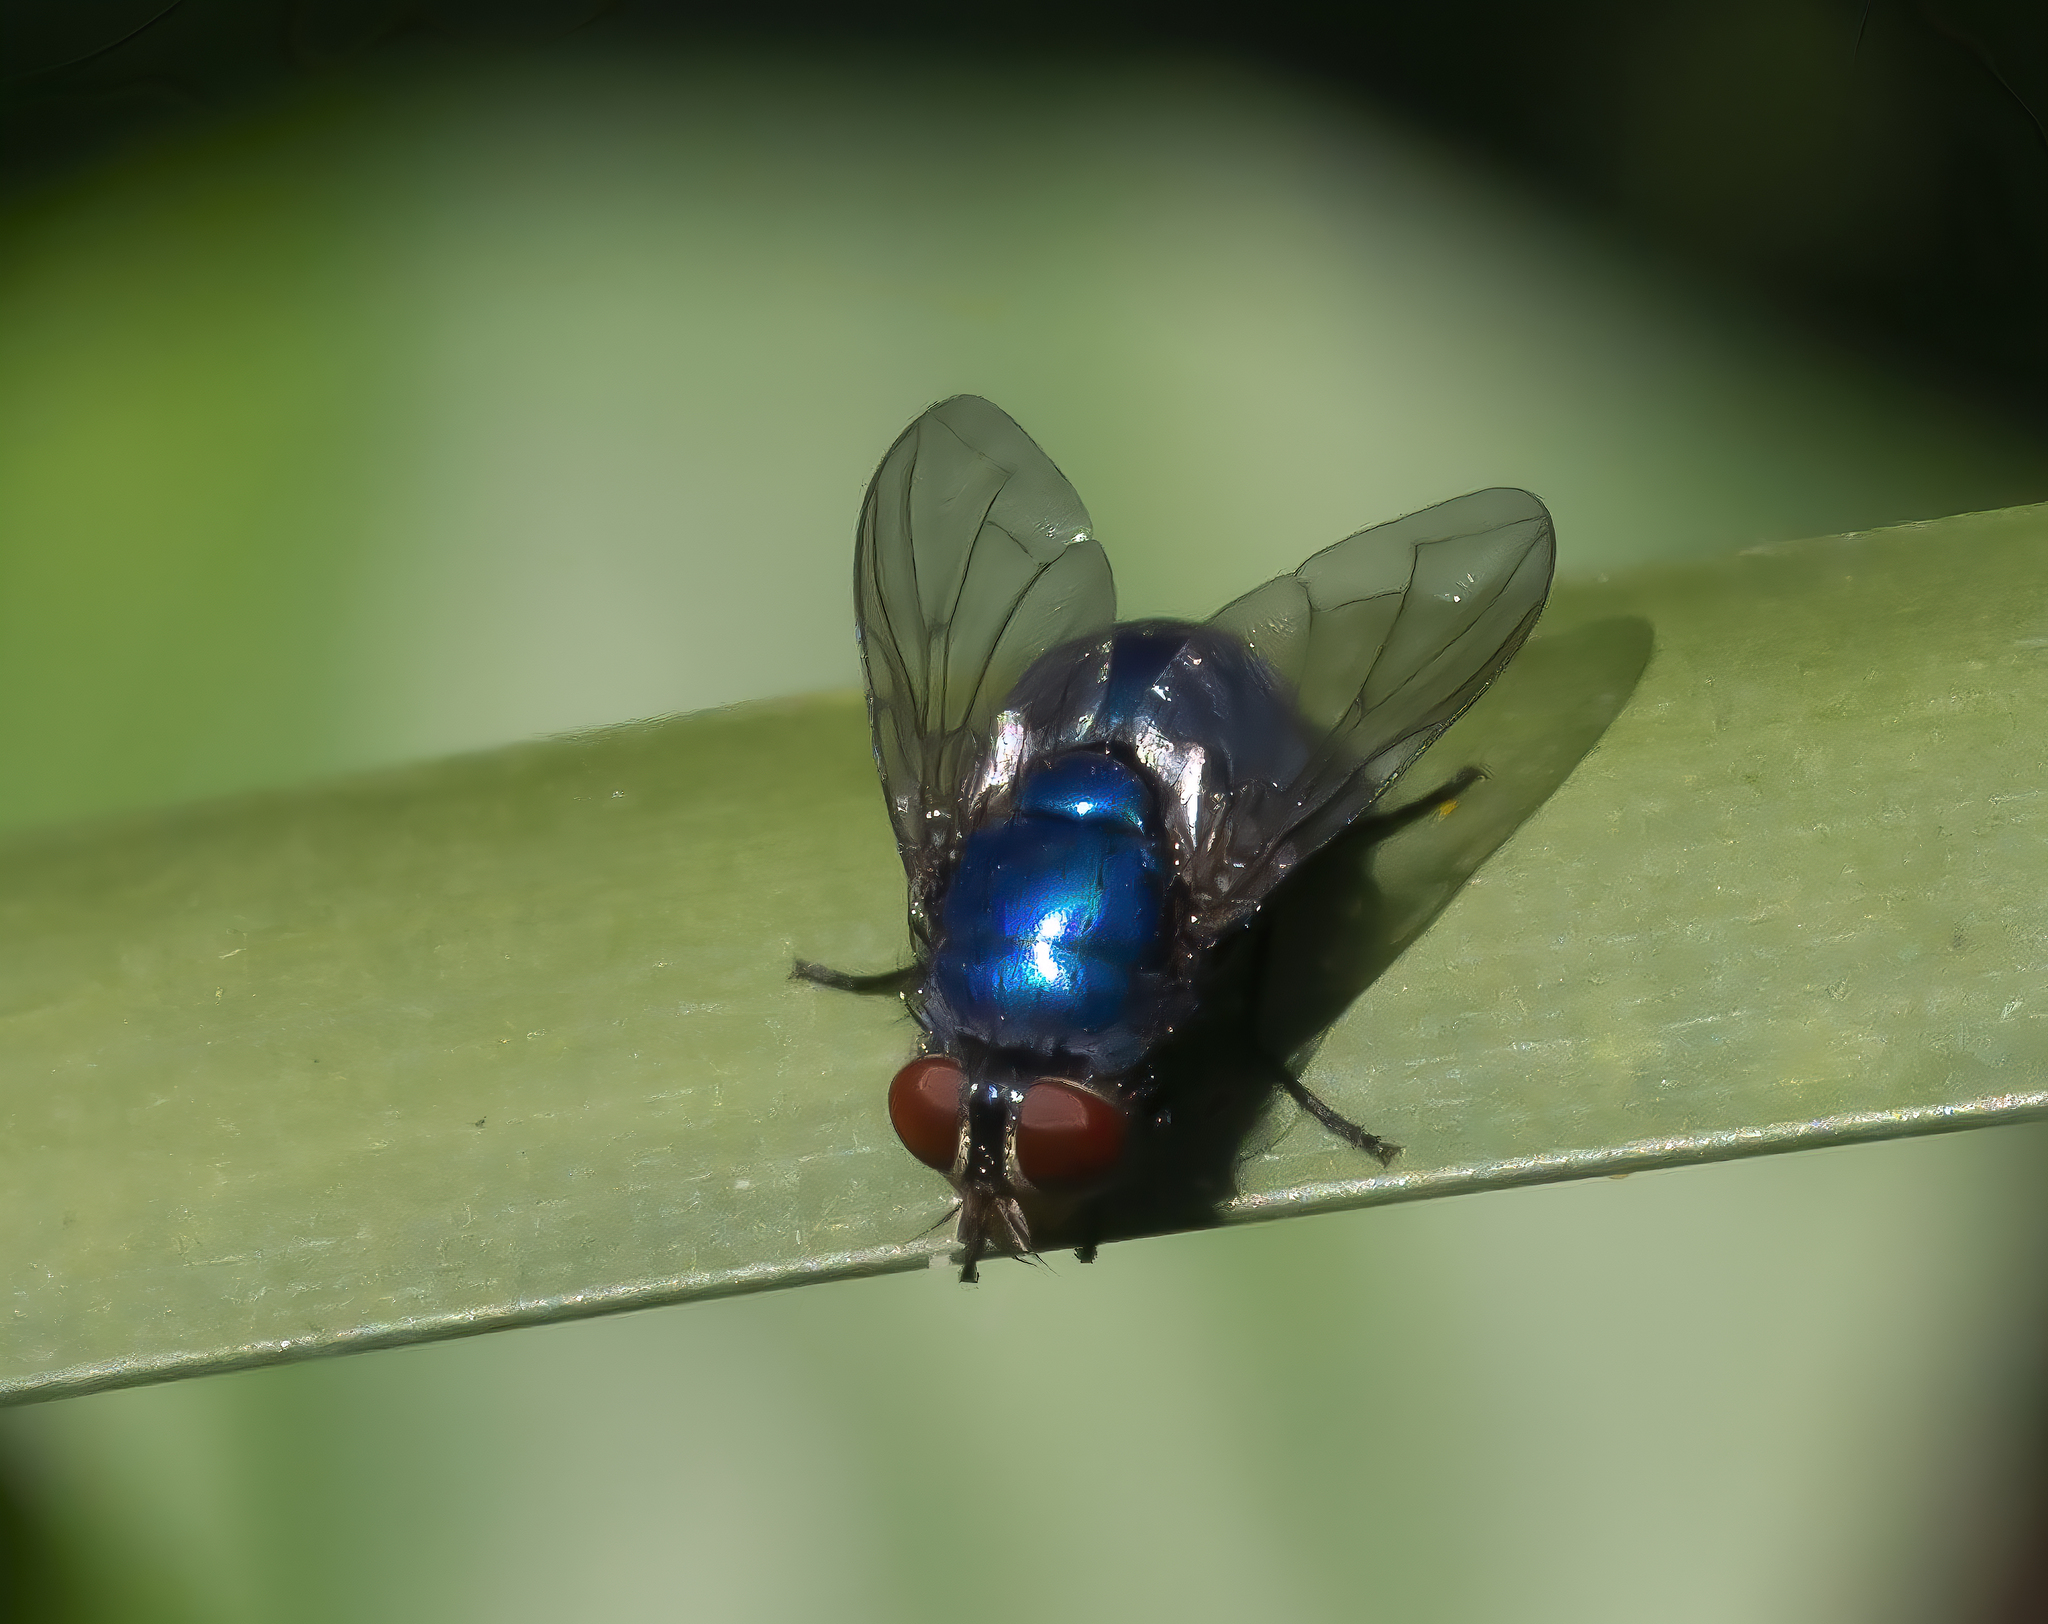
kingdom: Animalia
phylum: Arthropoda
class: Insecta
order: Diptera
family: Calliphoridae
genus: Lucilia
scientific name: Lucilia eximia
